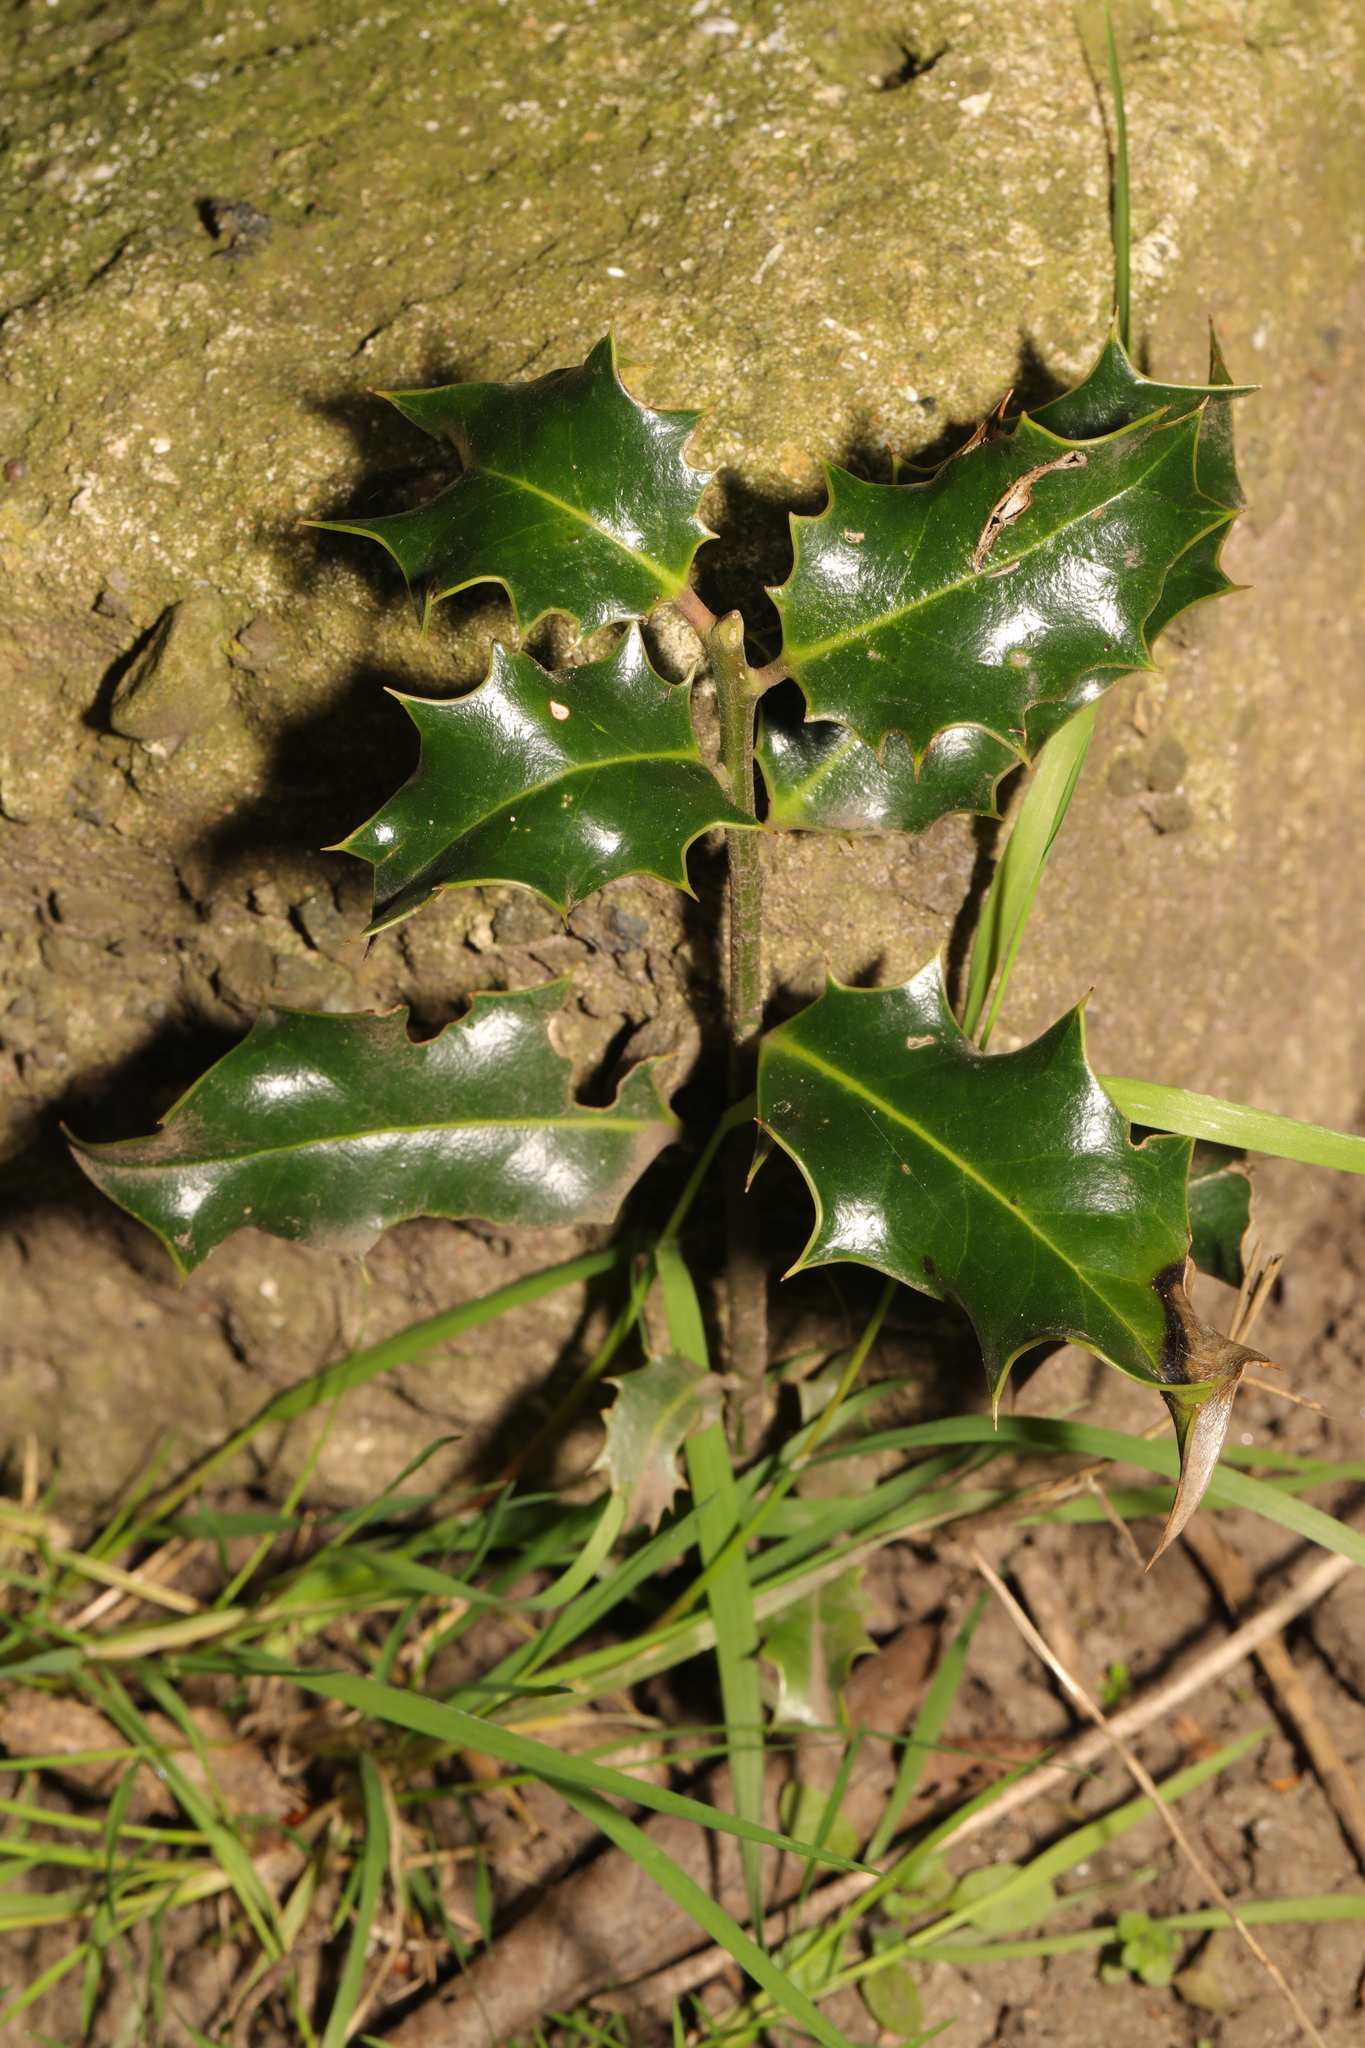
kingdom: Plantae
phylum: Tracheophyta
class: Magnoliopsida
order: Aquifoliales
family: Aquifoliaceae
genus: Ilex
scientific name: Ilex aquifolium
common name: English holly
